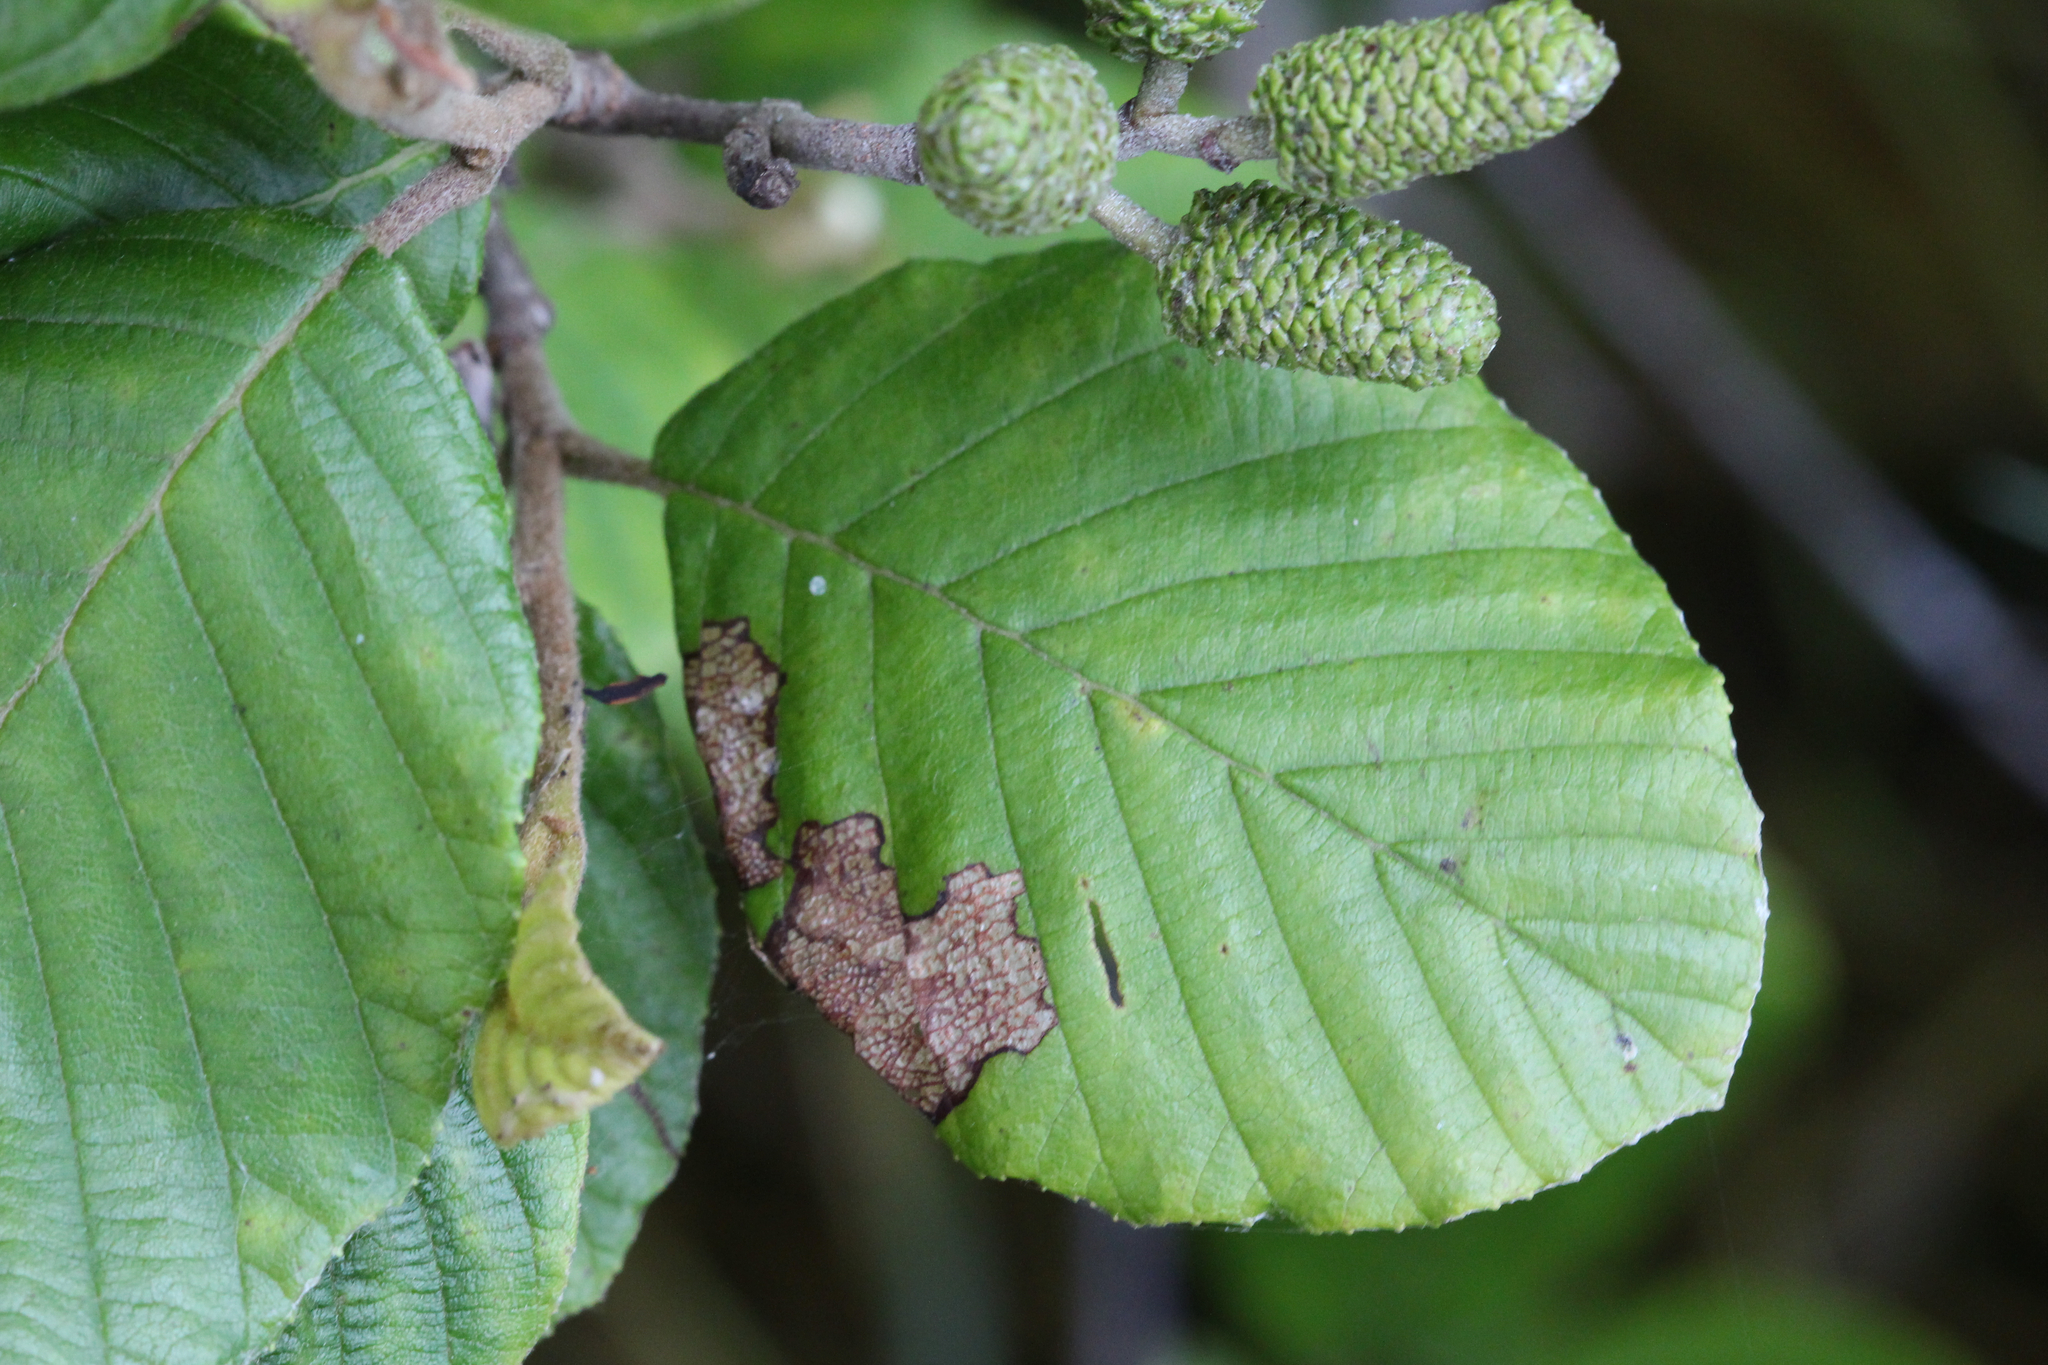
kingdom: Plantae
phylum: Tracheophyta
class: Magnoliopsida
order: Fagales
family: Betulaceae
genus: Alnus
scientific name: Alnus serrulata
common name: Hazel alder
